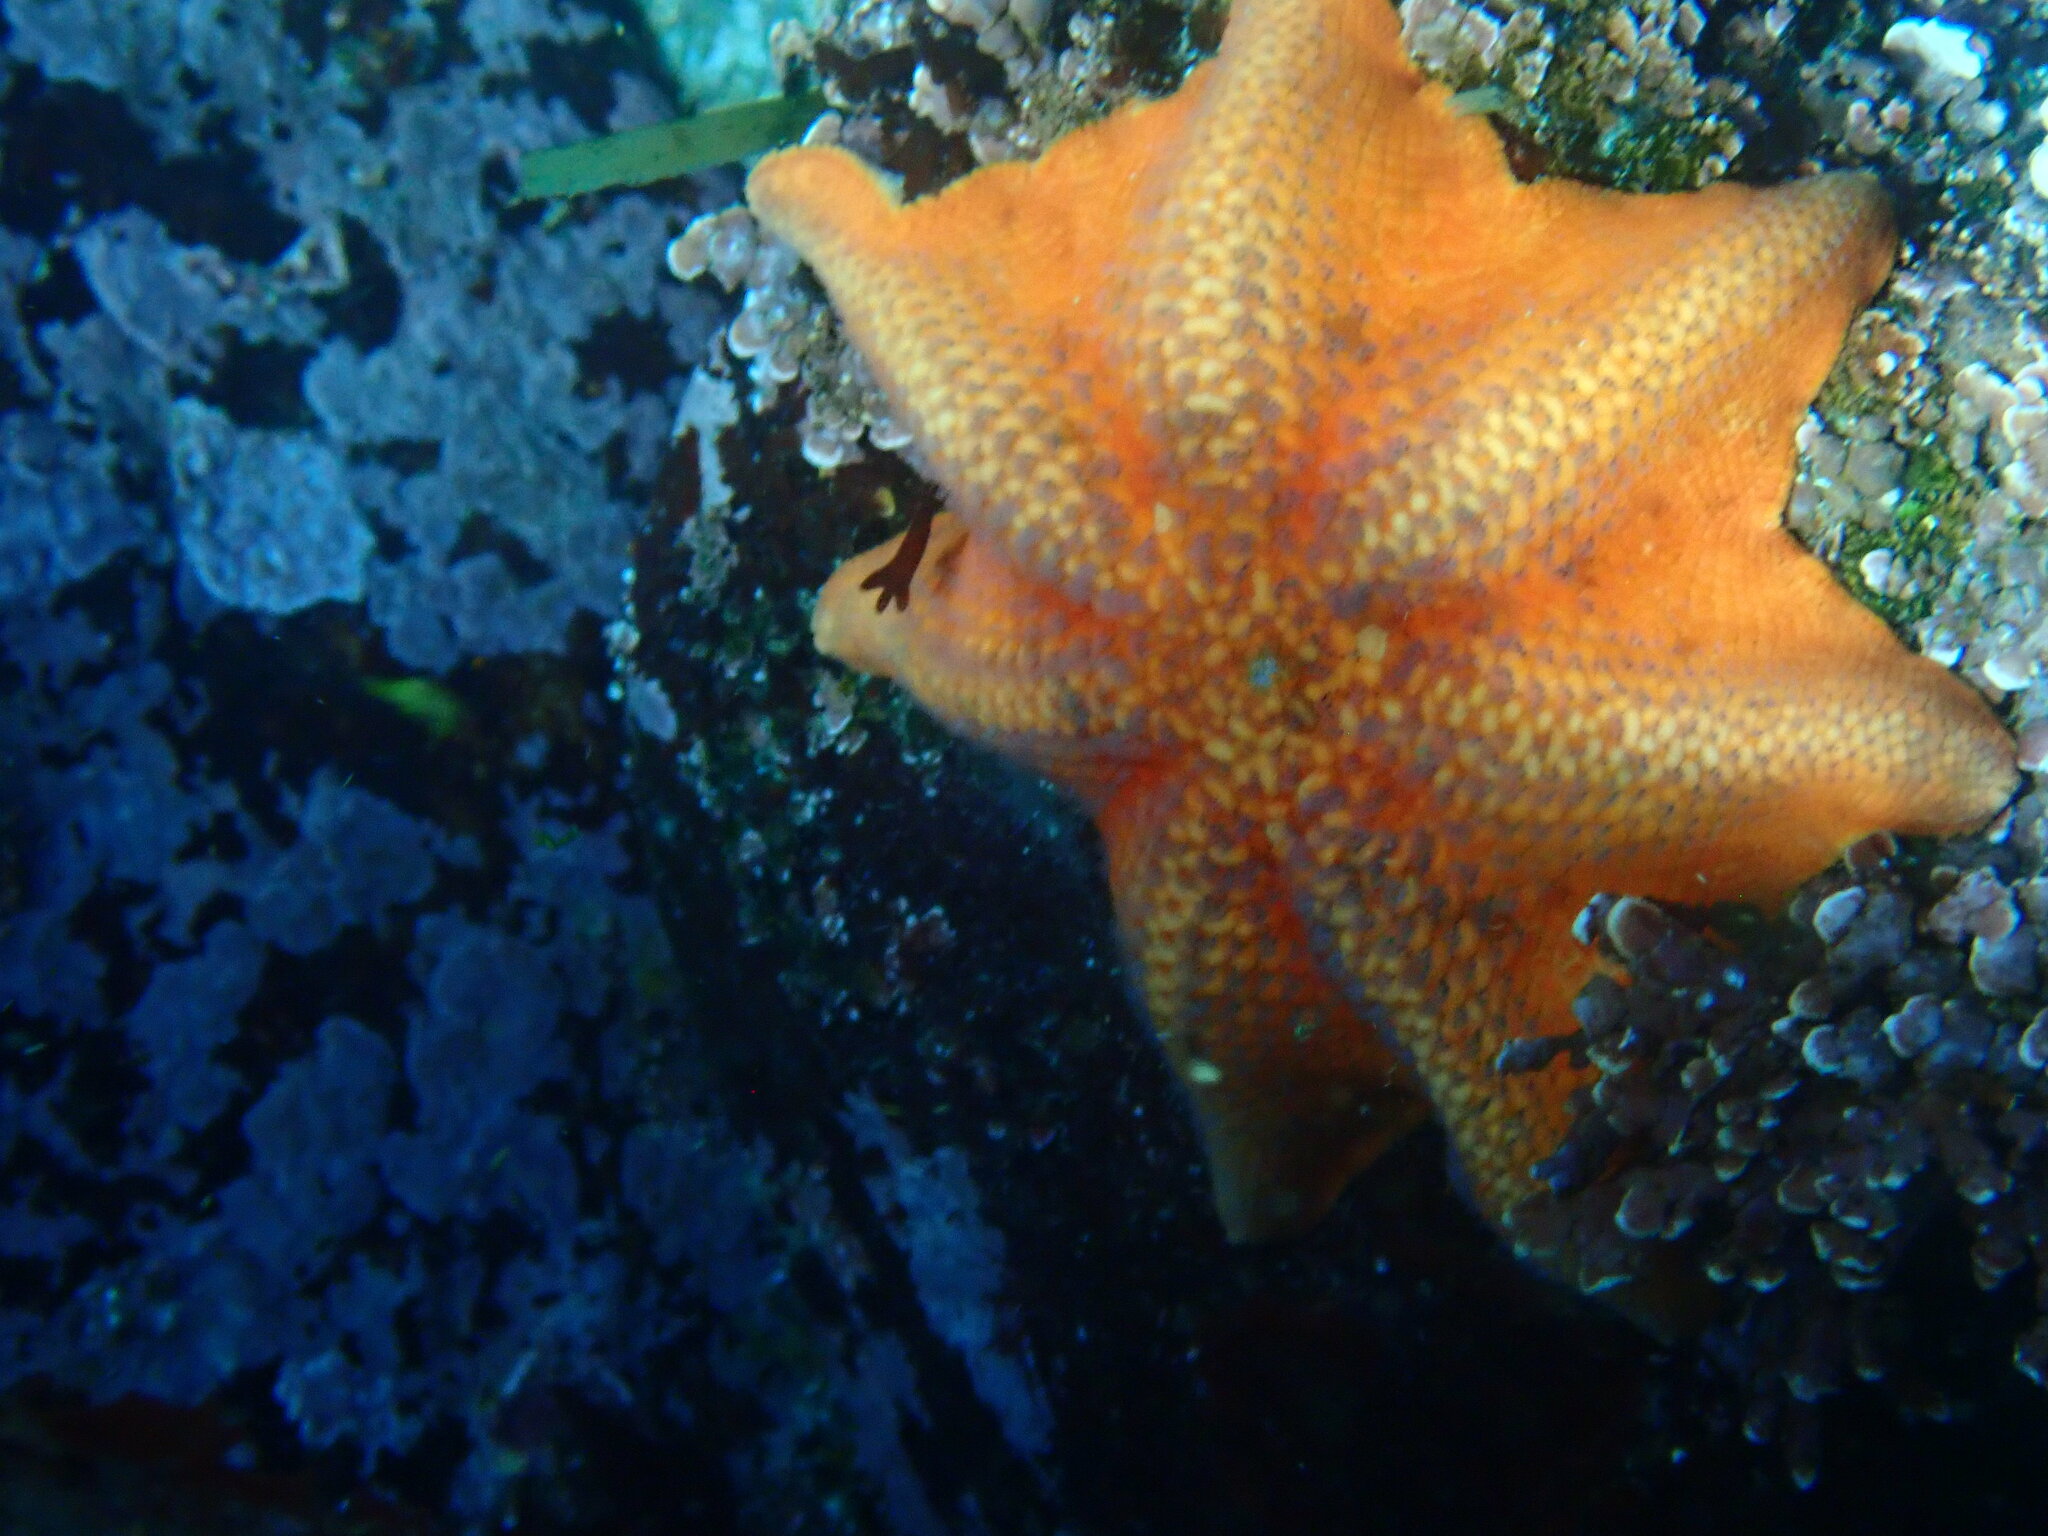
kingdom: Animalia
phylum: Echinodermata
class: Asteroidea
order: Valvatida
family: Asterinidae
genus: Patiria
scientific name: Patiria miniata
